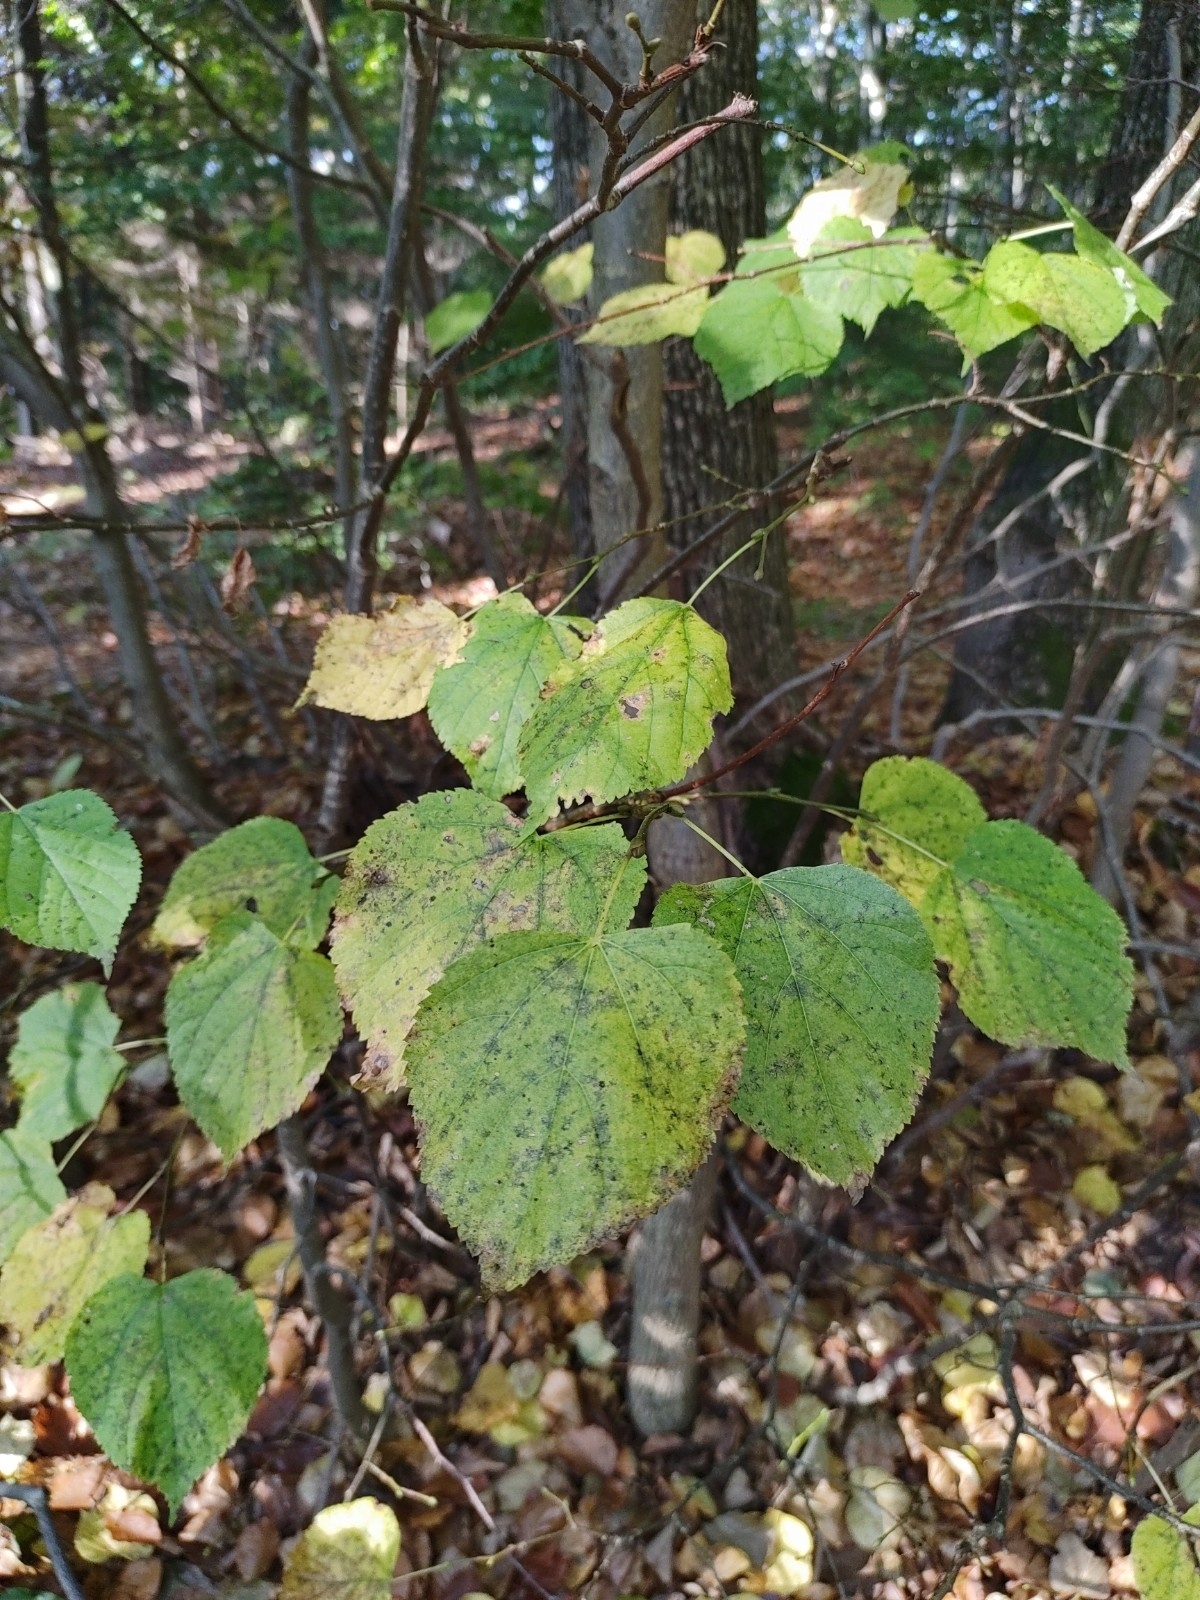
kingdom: Plantae
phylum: Tracheophyta
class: Magnoliopsida
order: Malvales
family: Malvaceae
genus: Tilia
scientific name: Tilia cordata
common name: Small-leaved lime
